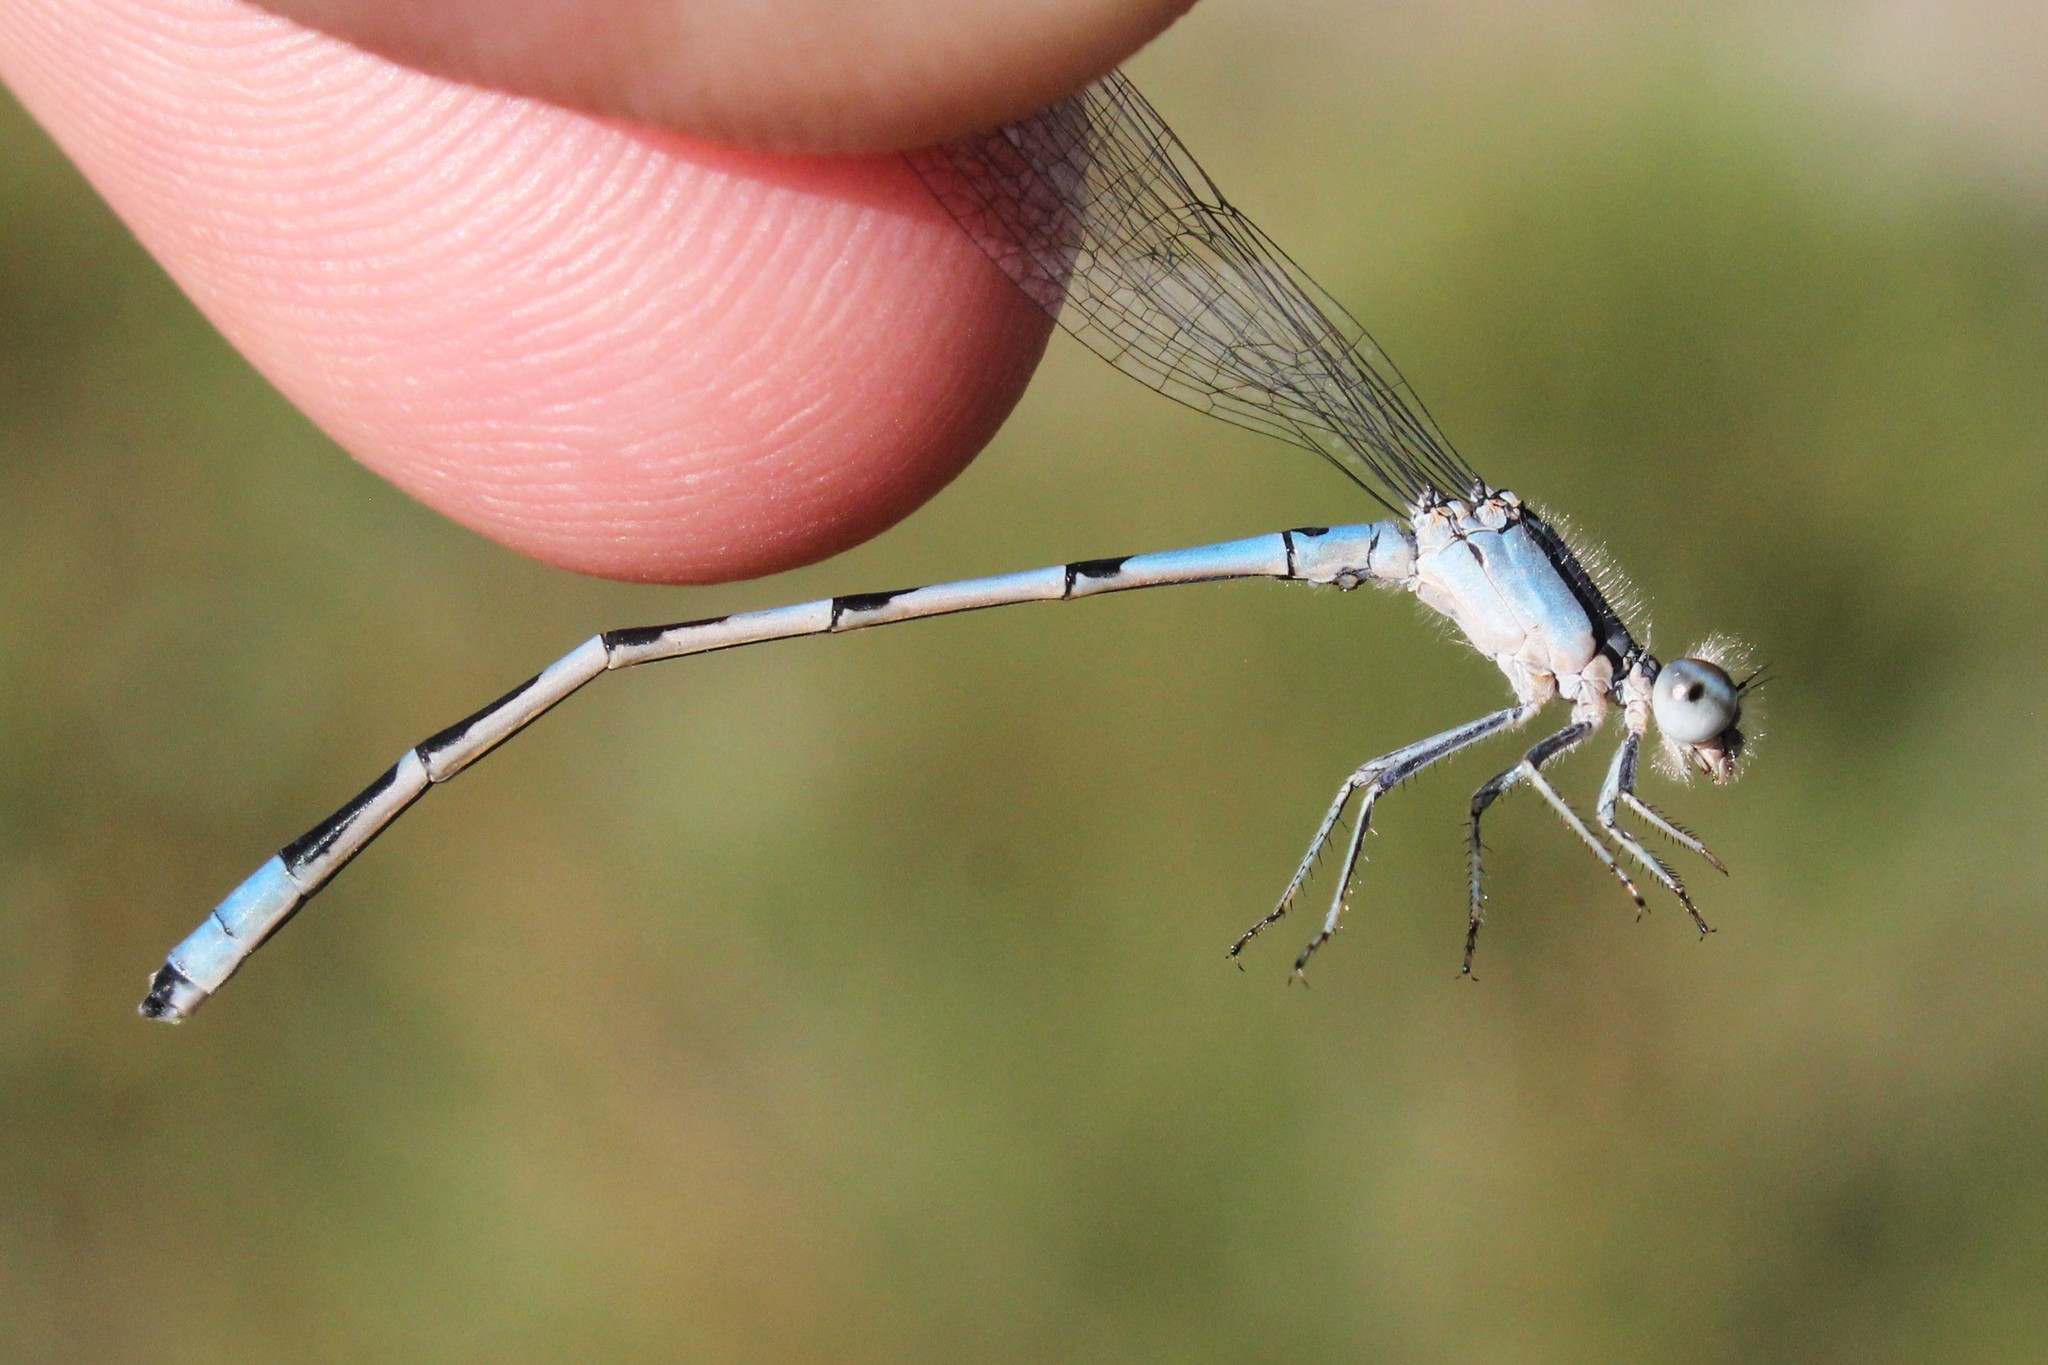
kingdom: Animalia
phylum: Arthropoda
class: Insecta
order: Odonata
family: Coenagrionidae
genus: Enallagma
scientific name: Enallagma carunculatum
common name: Tule bluet
